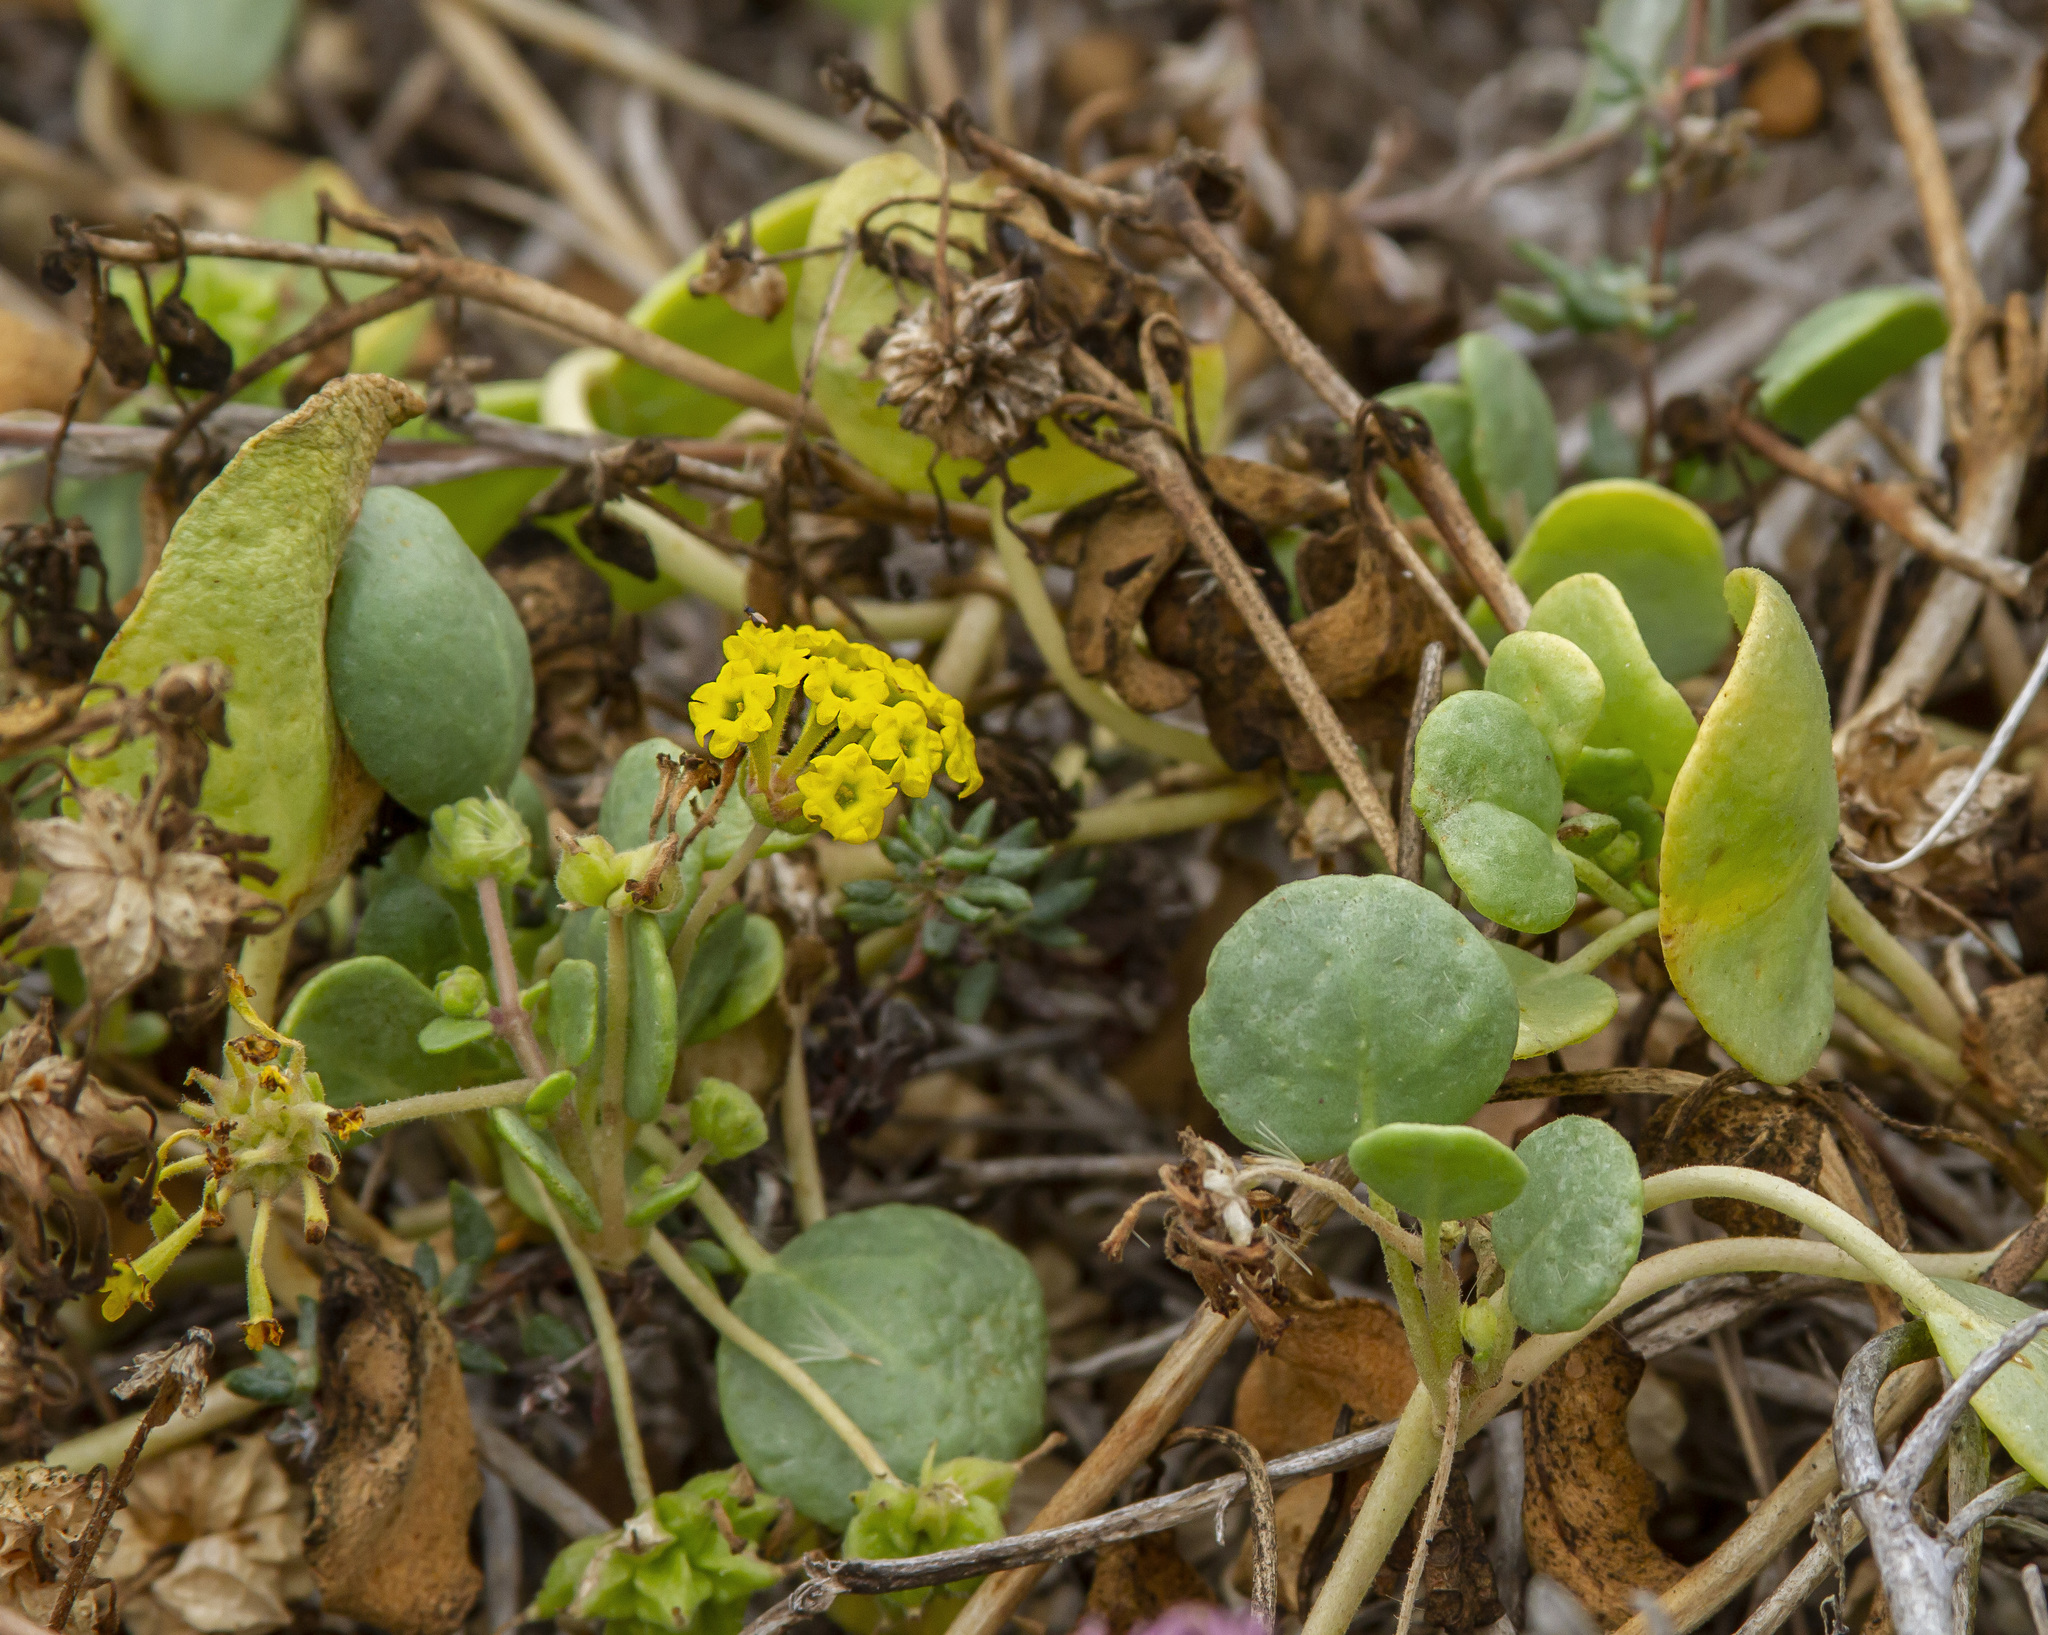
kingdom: Plantae
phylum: Tracheophyta
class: Magnoliopsida
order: Caryophyllales
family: Nyctaginaceae
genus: Abronia
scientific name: Abronia latifolia
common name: Yellow sand-verbena
